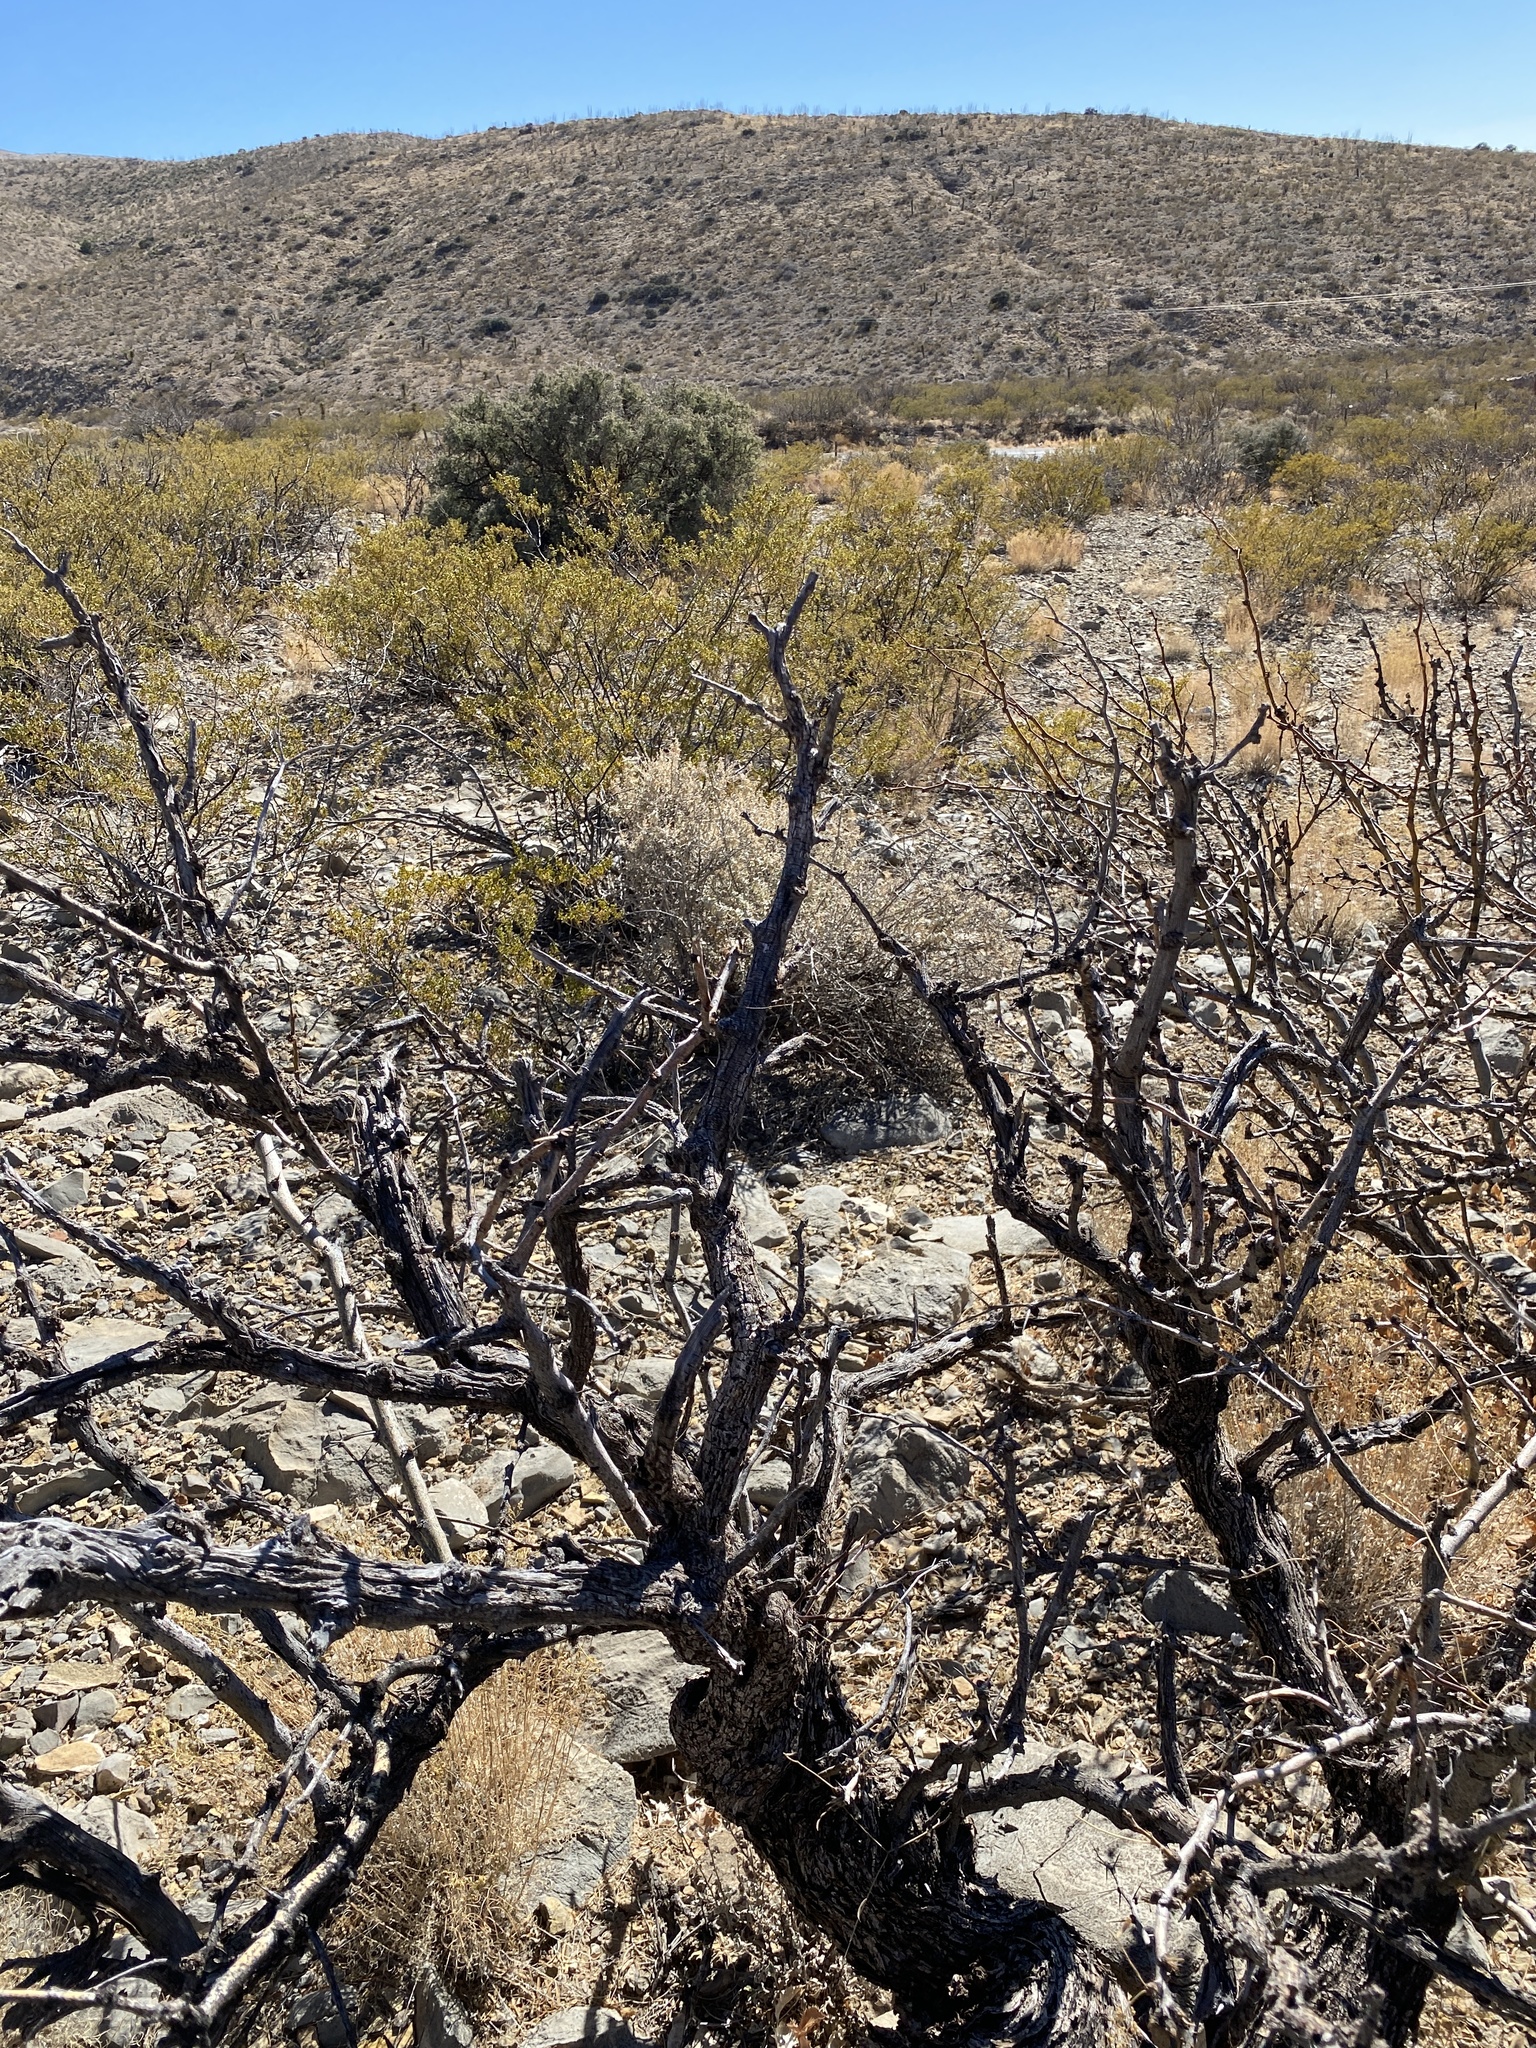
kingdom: Plantae
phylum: Tracheophyta
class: Magnoliopsida
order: Fabales
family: Fabaceae
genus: Prosopis
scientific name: Prosopis glandulosa
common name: Honey mesquite
